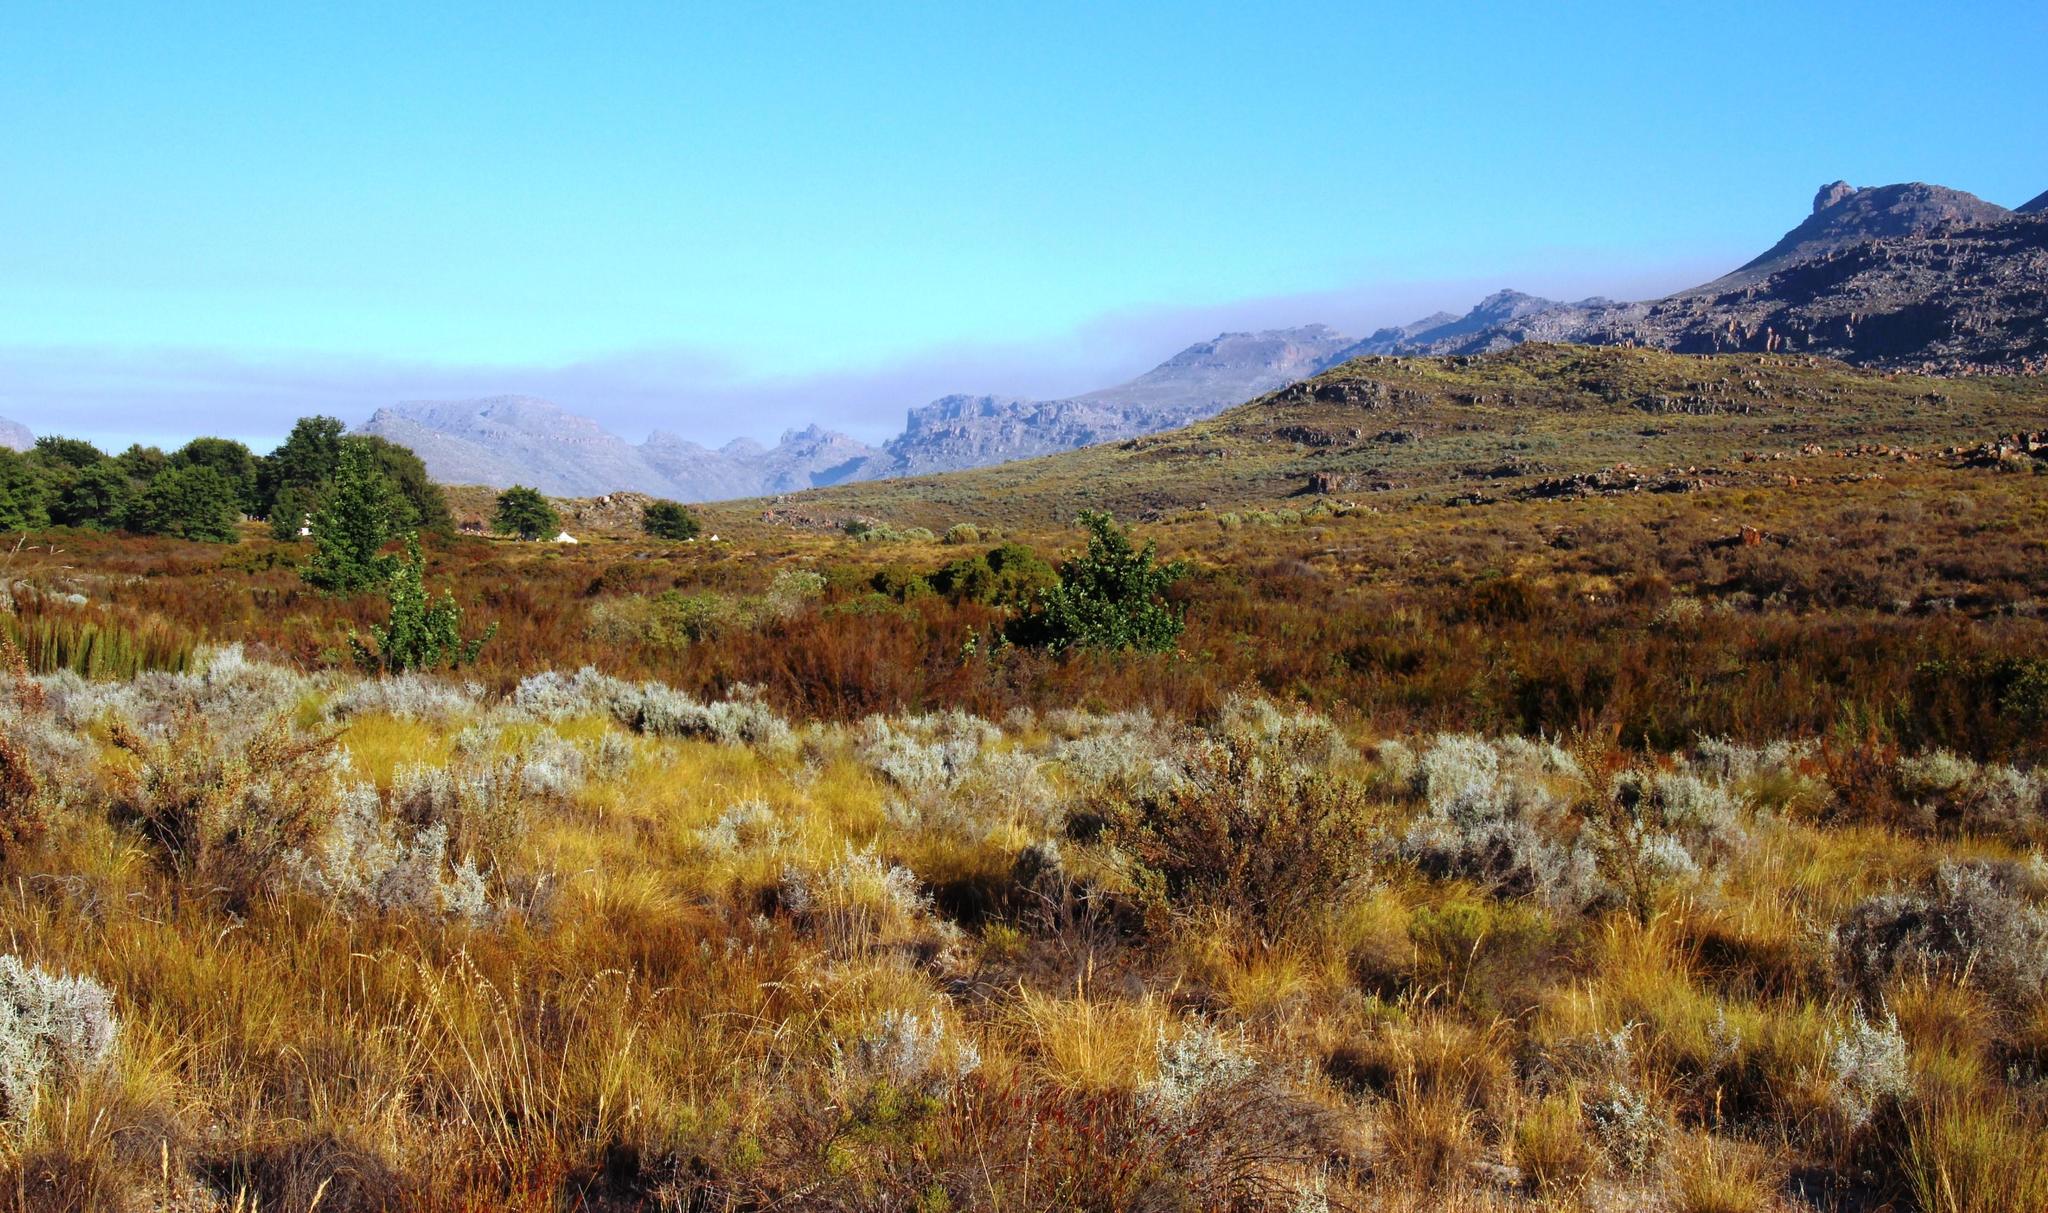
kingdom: Plantae
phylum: Tracheophyta
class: Magnoliopsida
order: Asterales
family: Asteraceae
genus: Seriphium
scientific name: Seriphium plumosum
